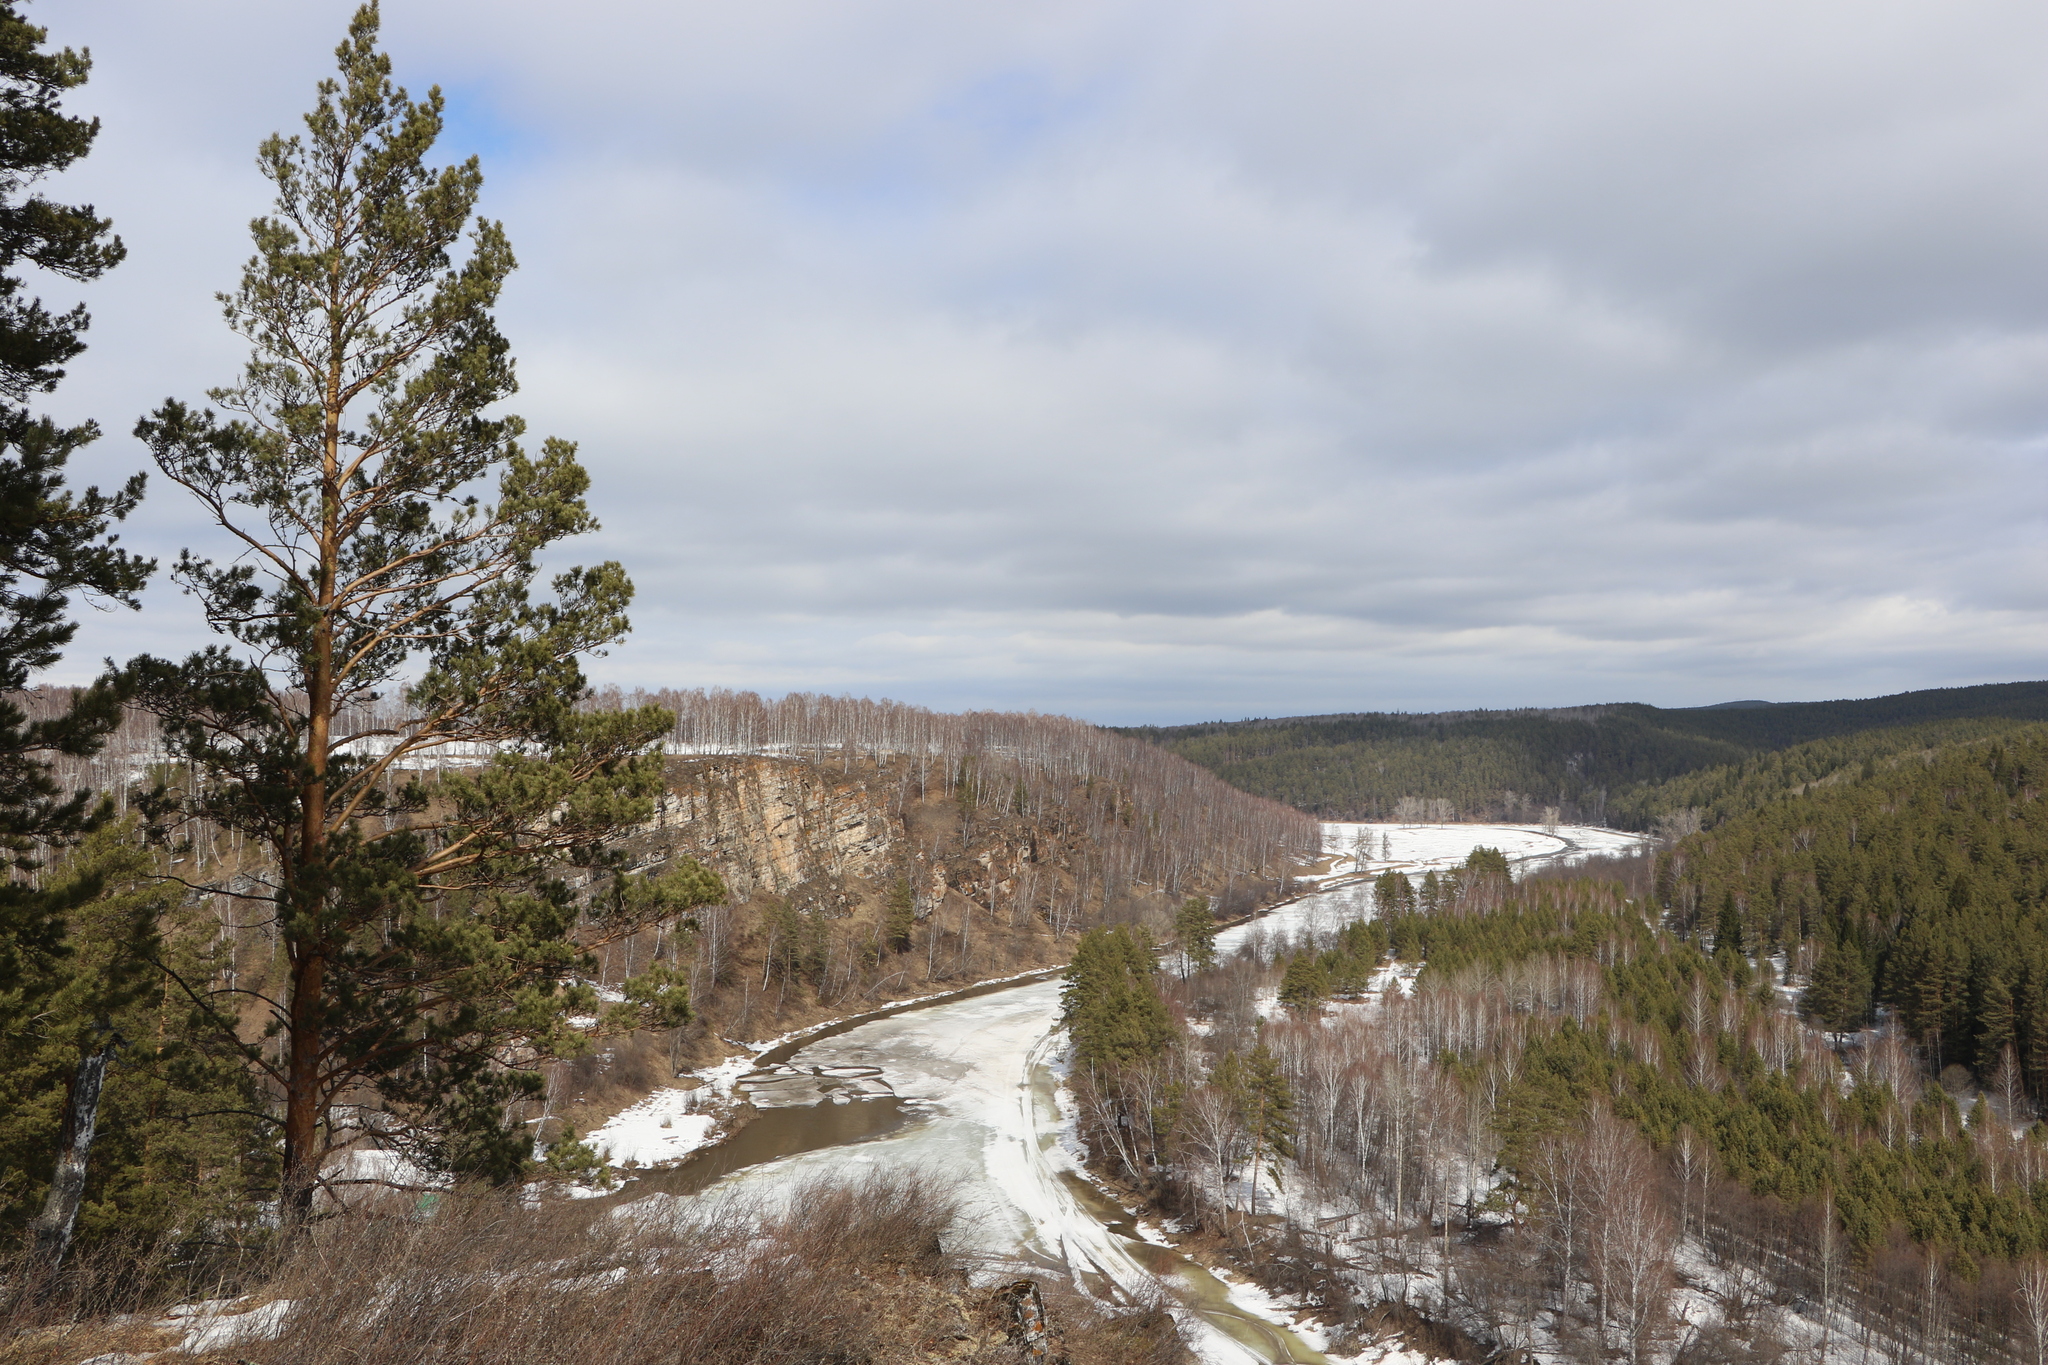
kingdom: Plantae
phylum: Tracheophyta
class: Pinopsida
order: Pinales
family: Pinaceae
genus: Pinus
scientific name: Pinus sylvestris
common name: Scots pine
